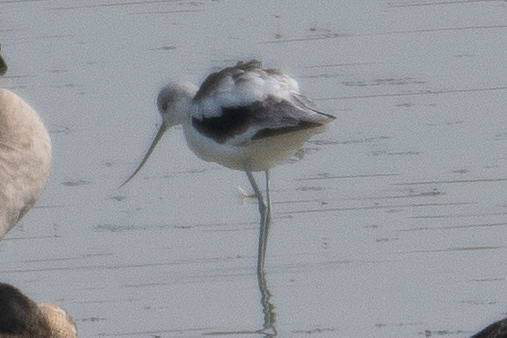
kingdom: Animalia
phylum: Chordata
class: Aves
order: Charadriiformes
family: Recurvirostridae
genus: Recurvirostra
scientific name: Recurvirostra americana
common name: American avocet
